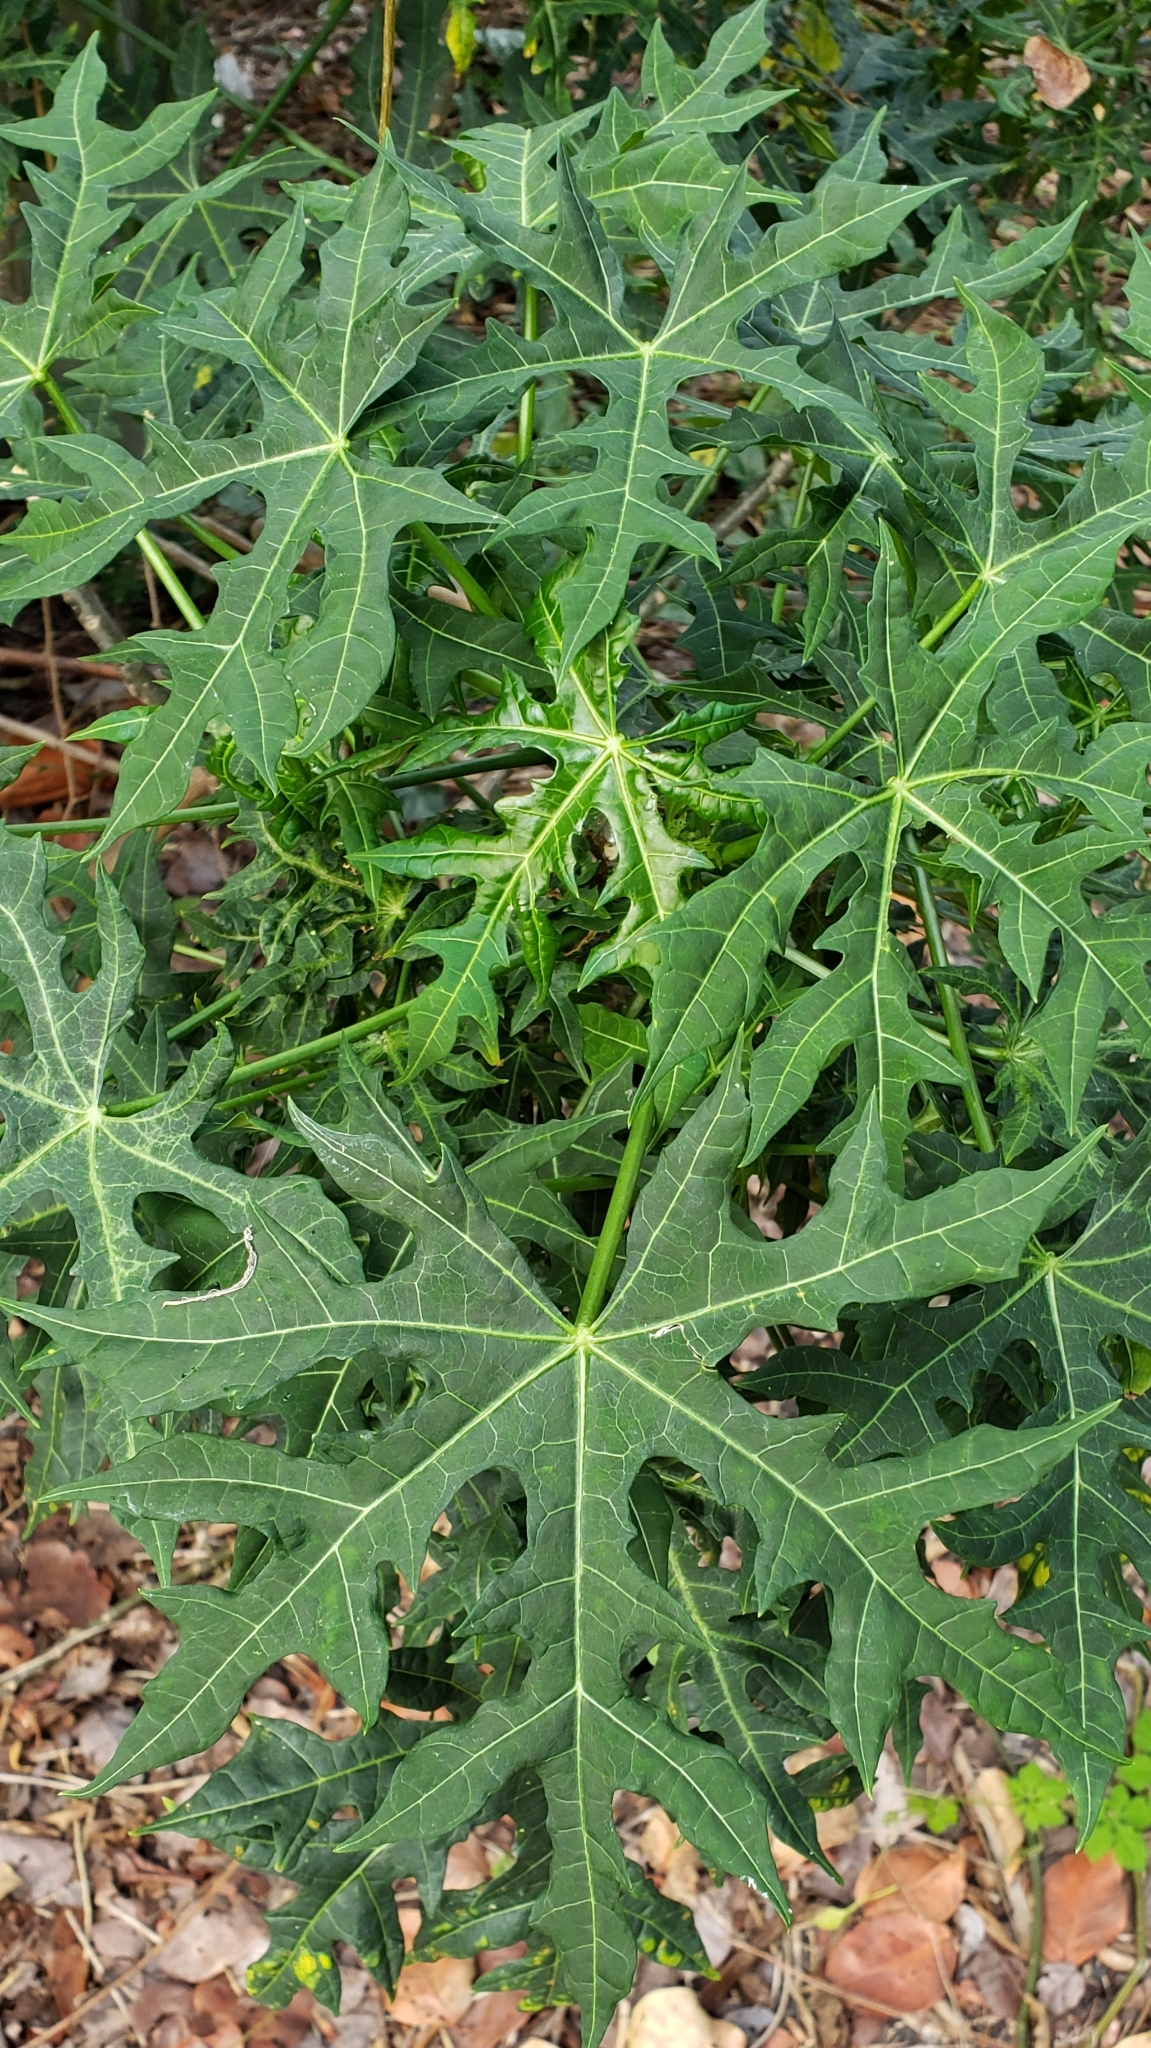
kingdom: Plantae
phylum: Tracheophyta
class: Magnoliopsida
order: Malpighiales
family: Euphorbiaceae
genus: Cnidoscolus
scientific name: Cnidoscolus aconitifolius
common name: Cabbage-star
